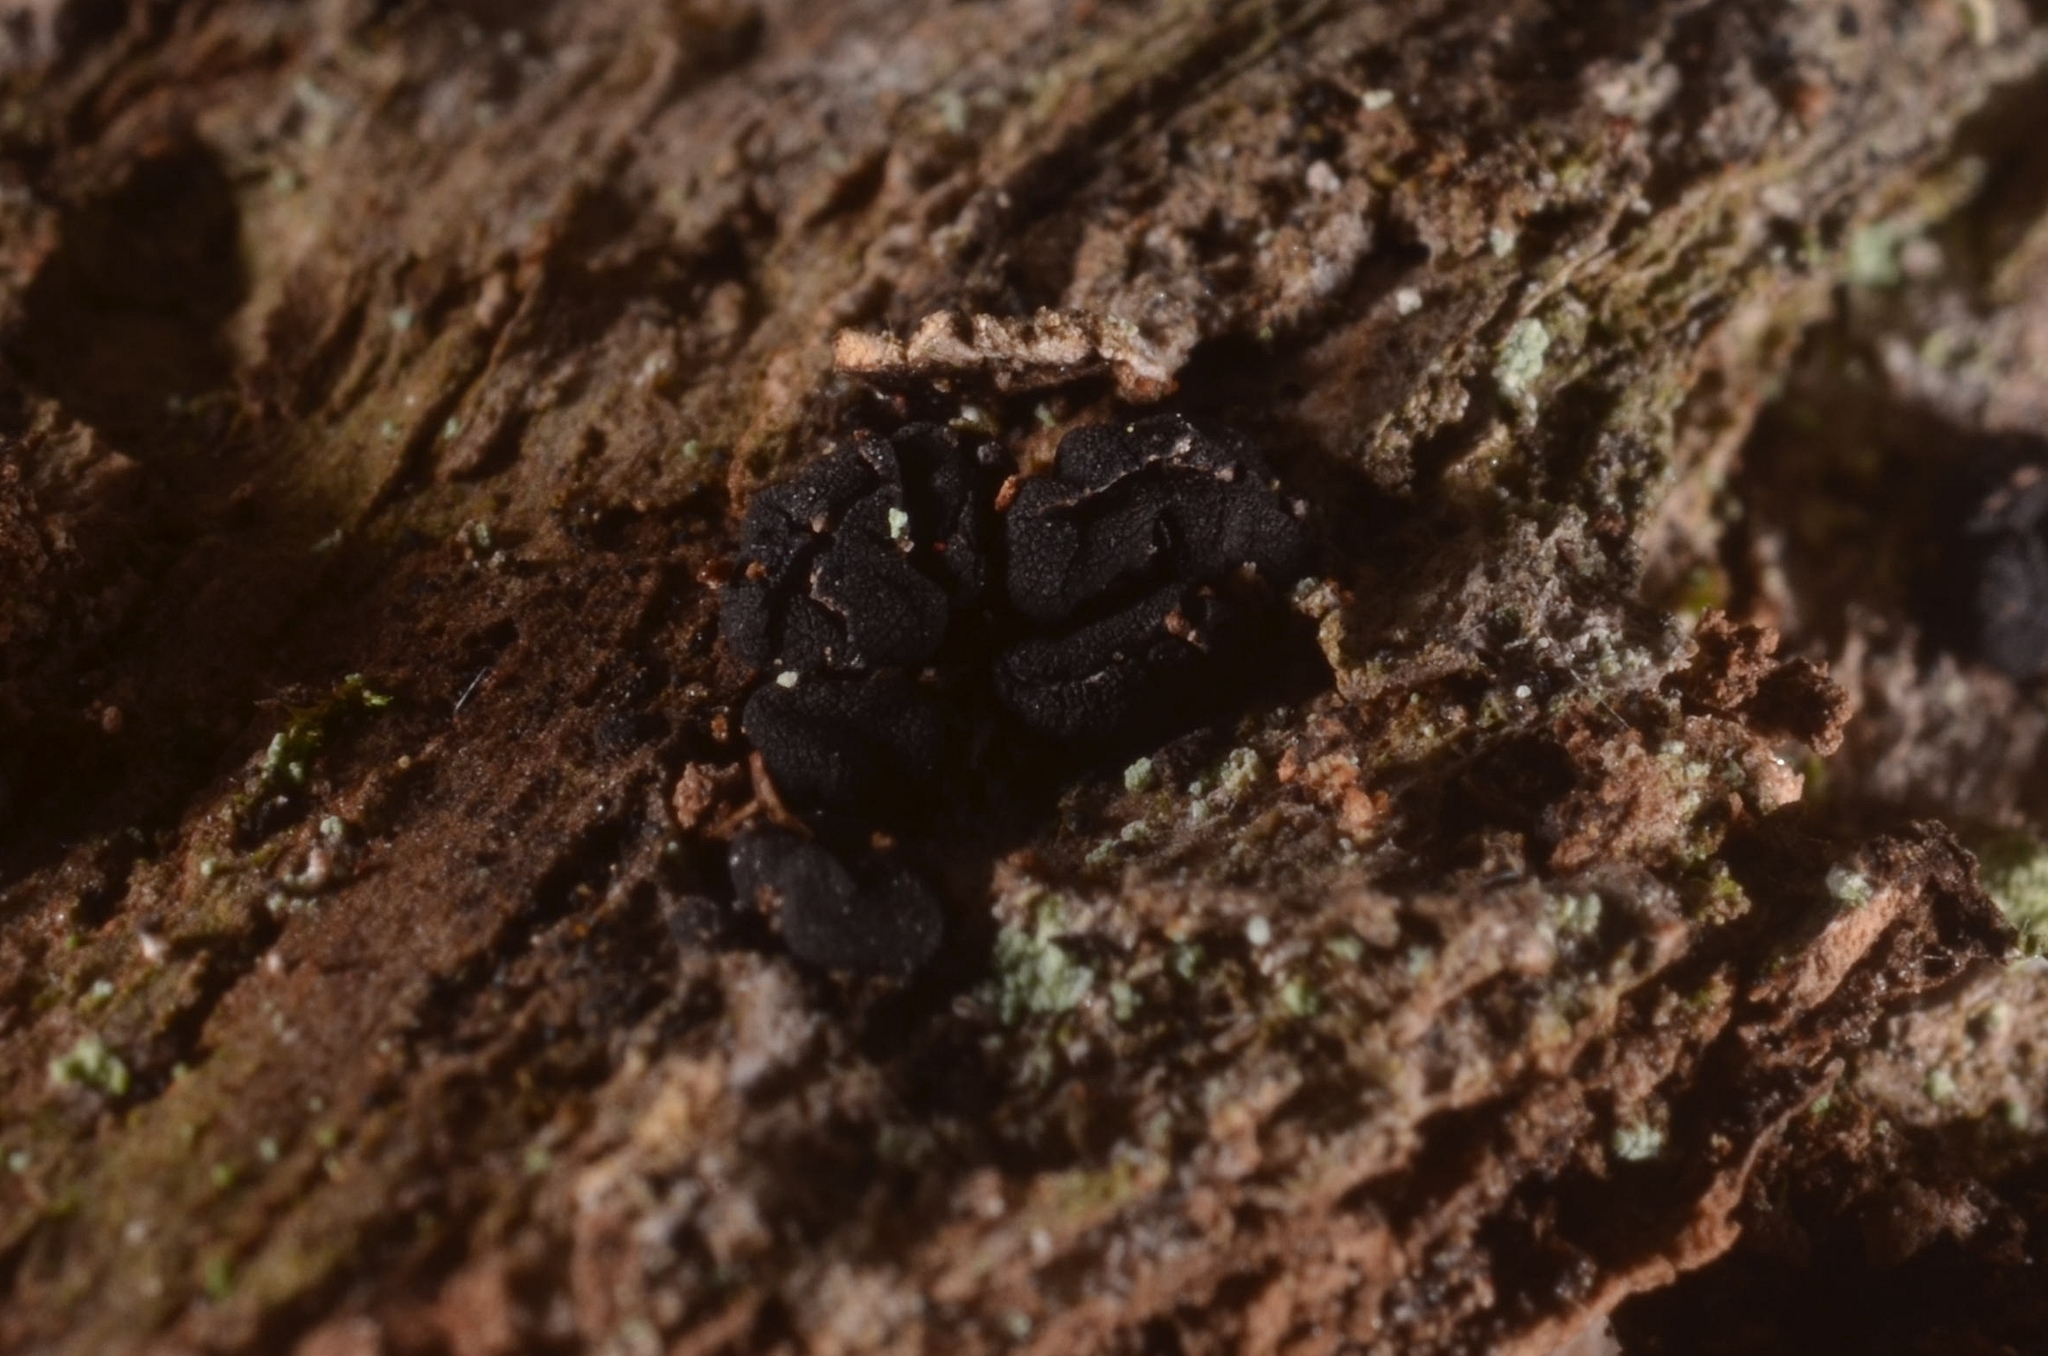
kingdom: Fungi
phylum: Ascomycota
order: Triblidiales
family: Triblidiaceae
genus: Triblidium
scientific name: Triblidium caliciiforme
